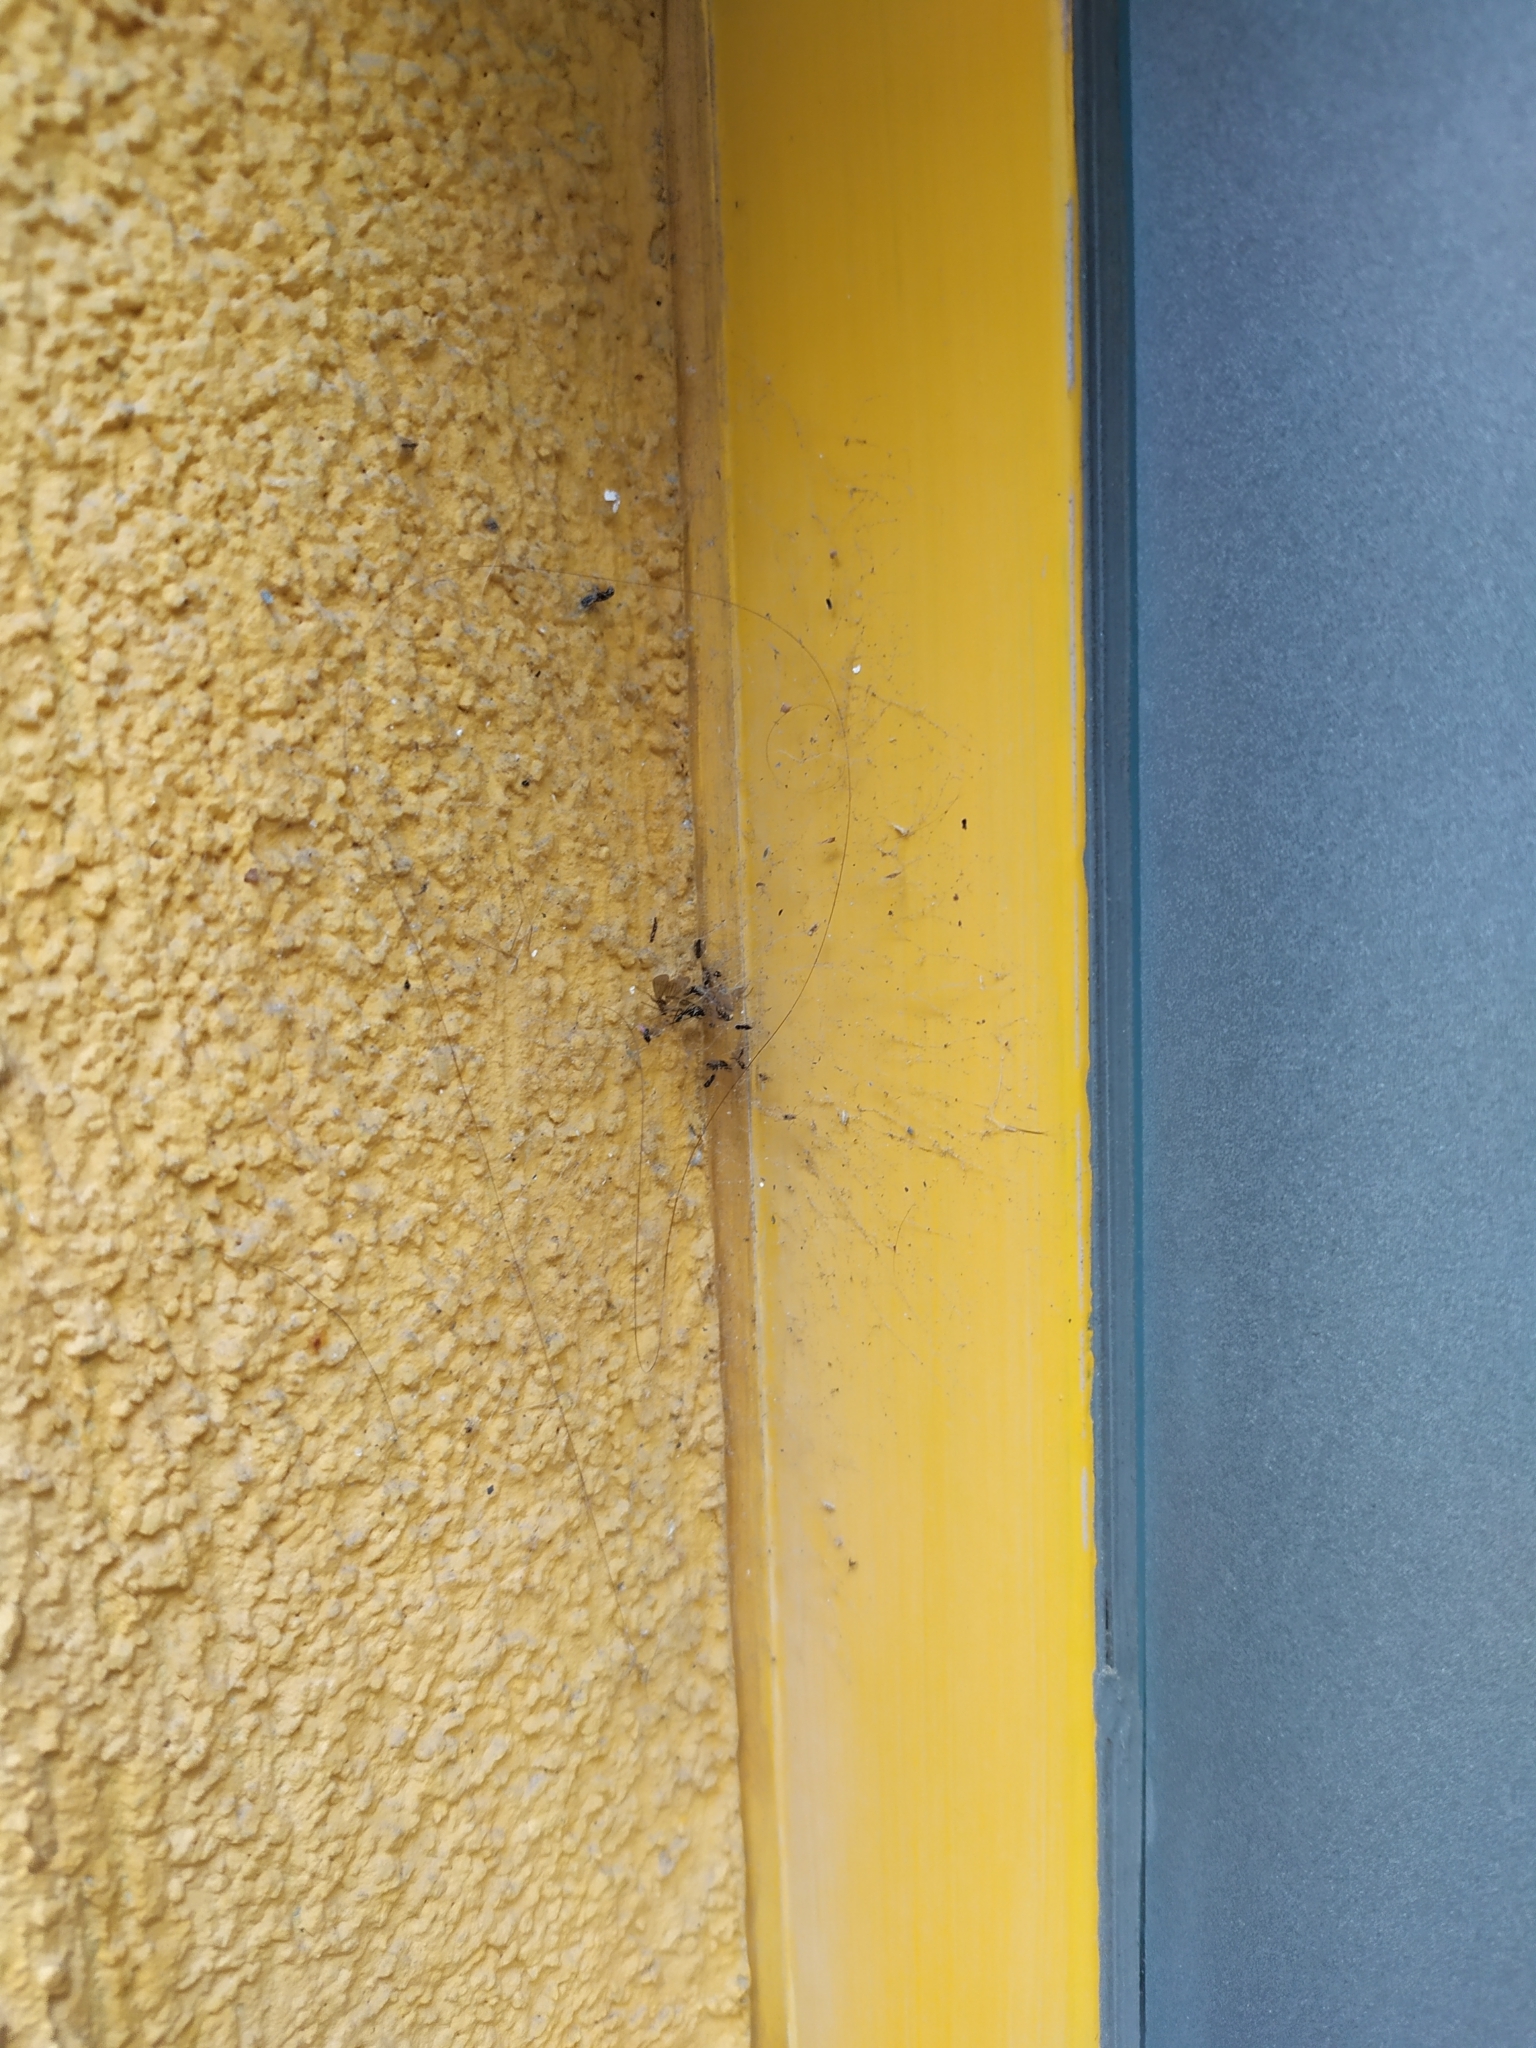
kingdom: Animalia
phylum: Arthropoda
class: Arachnida
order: Araneae
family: Dictynidae
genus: Brigittea
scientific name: Brigittea civica
